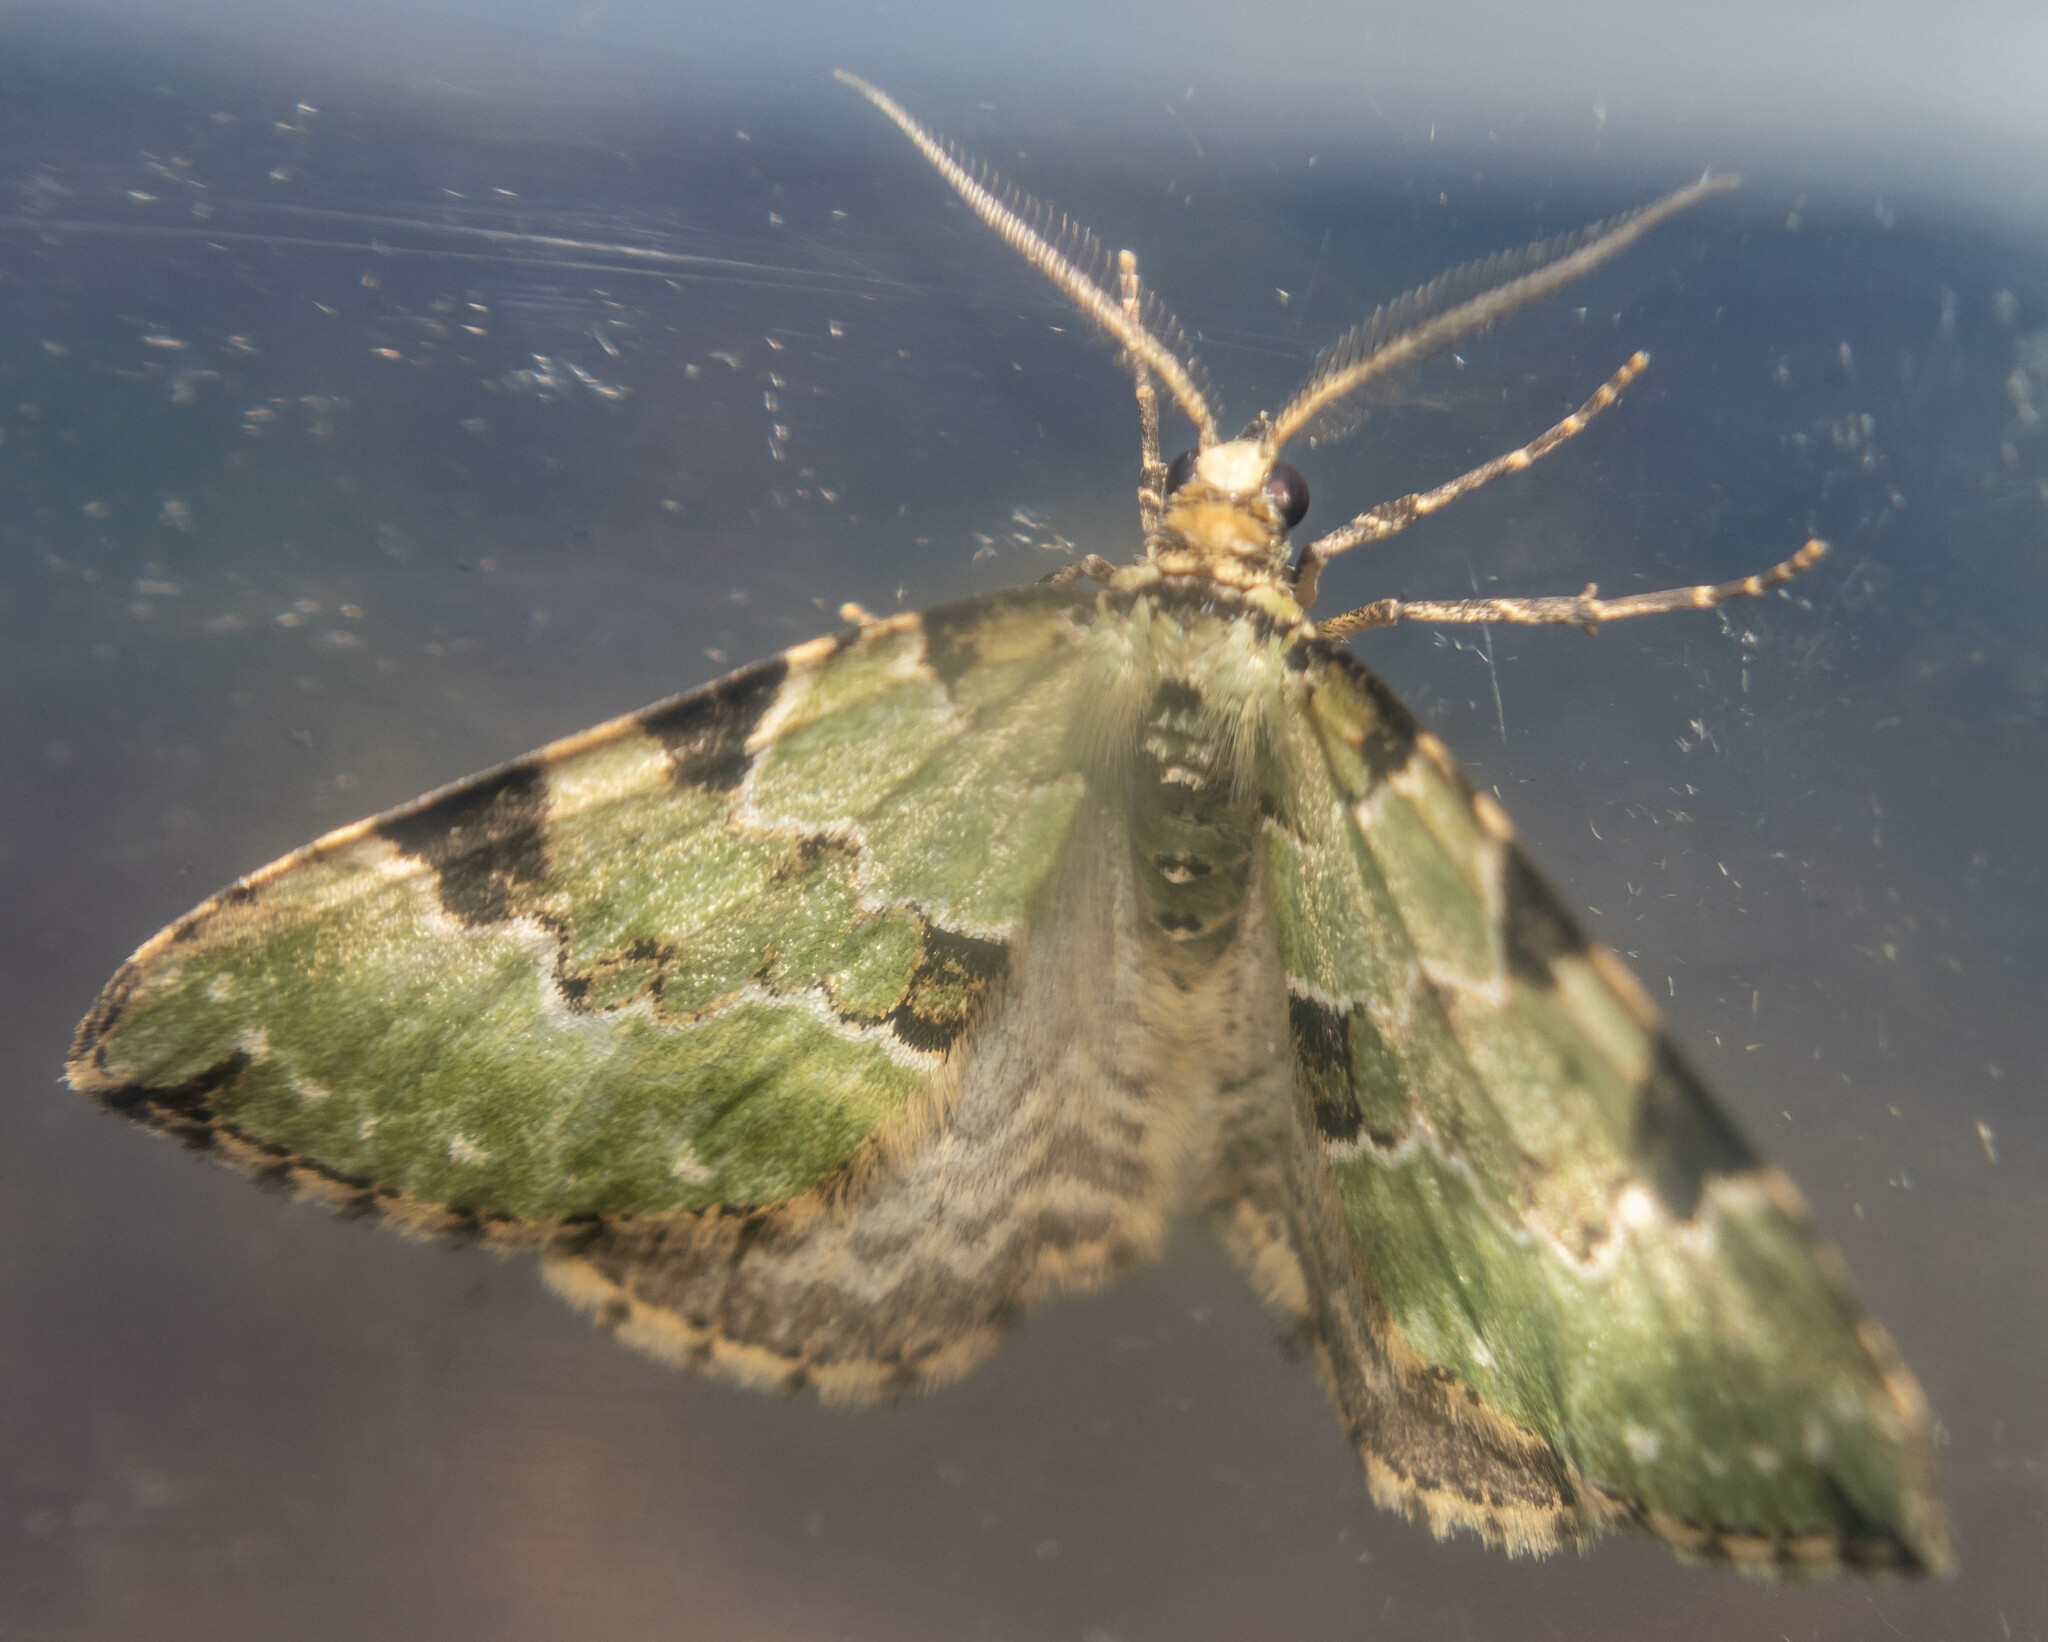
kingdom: Animalia
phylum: Arthropoda
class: Insecta
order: Lepidoptera
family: Geometridae
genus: Colostygia
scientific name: Colostygia pectinataria
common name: Green carpet
